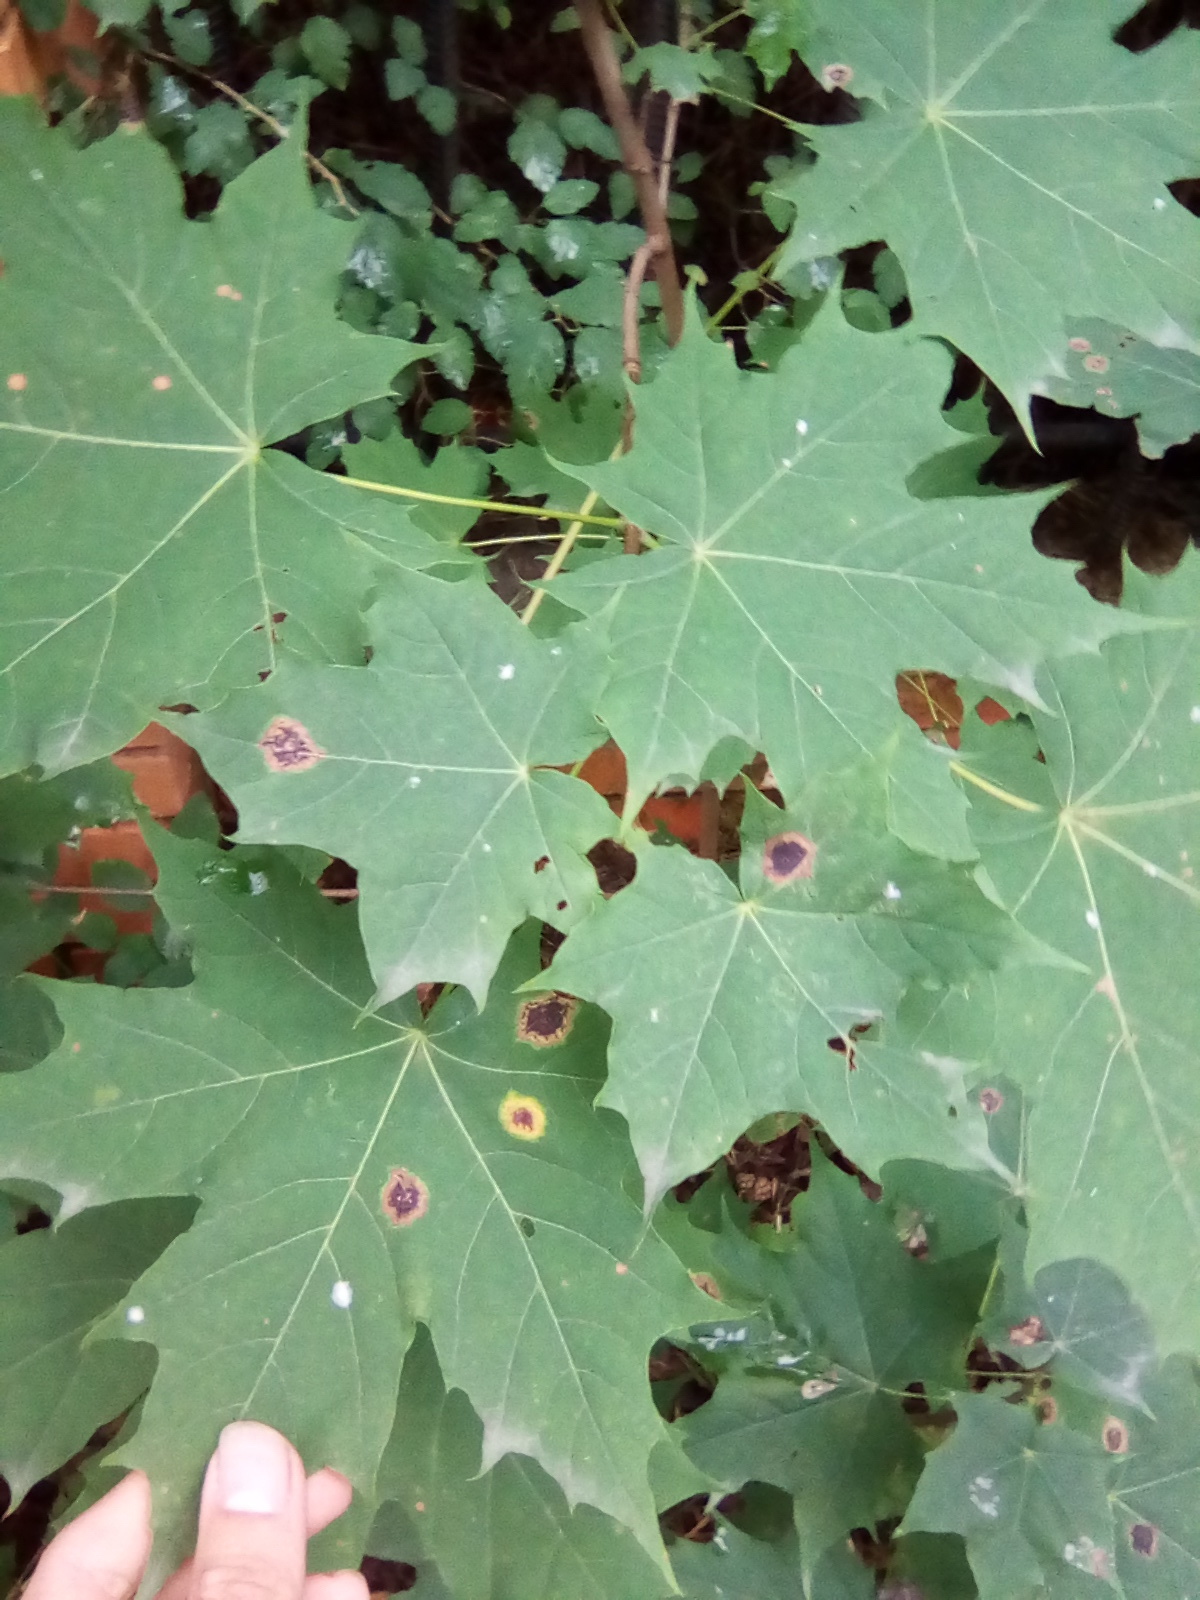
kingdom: Fungi
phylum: Ascomycota
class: Leotiomycetes
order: Rhytismatales
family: Rhytismataceae
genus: Rhytisma
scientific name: Rhytisma acerinum
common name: European tar spot
